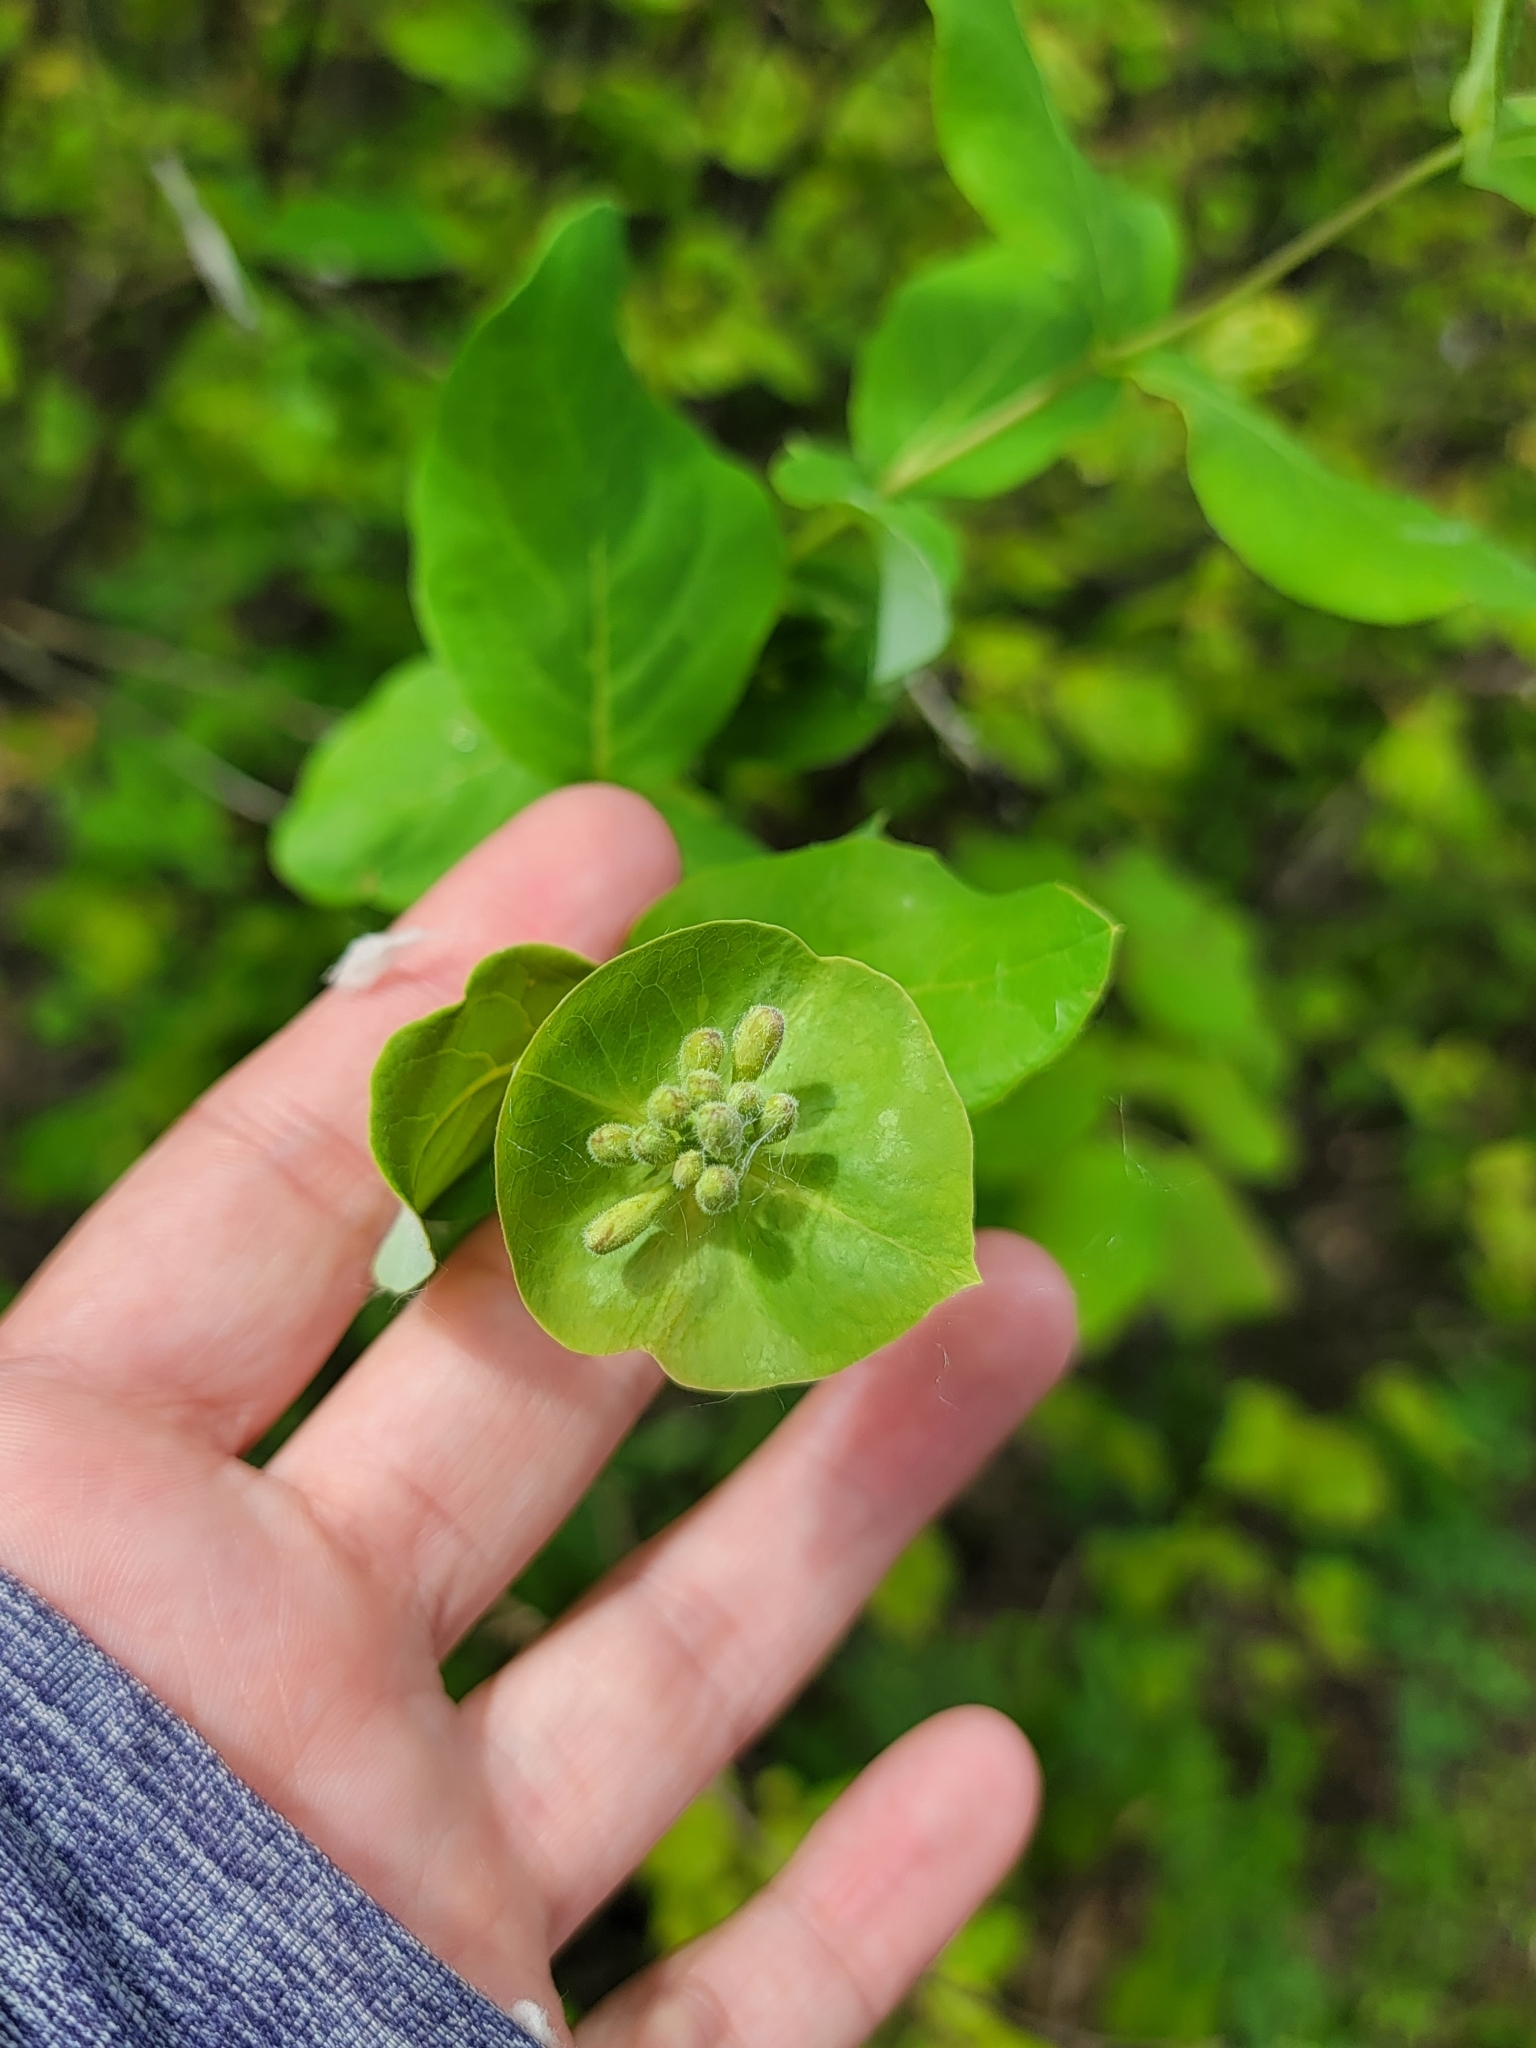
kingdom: Plantae
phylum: Tracheophyta
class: Magnoliopsida
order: Dipsacales
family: Caprifoliaceae
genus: Lonicera
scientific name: Lonicera dioica
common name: Limber honeysuckle
